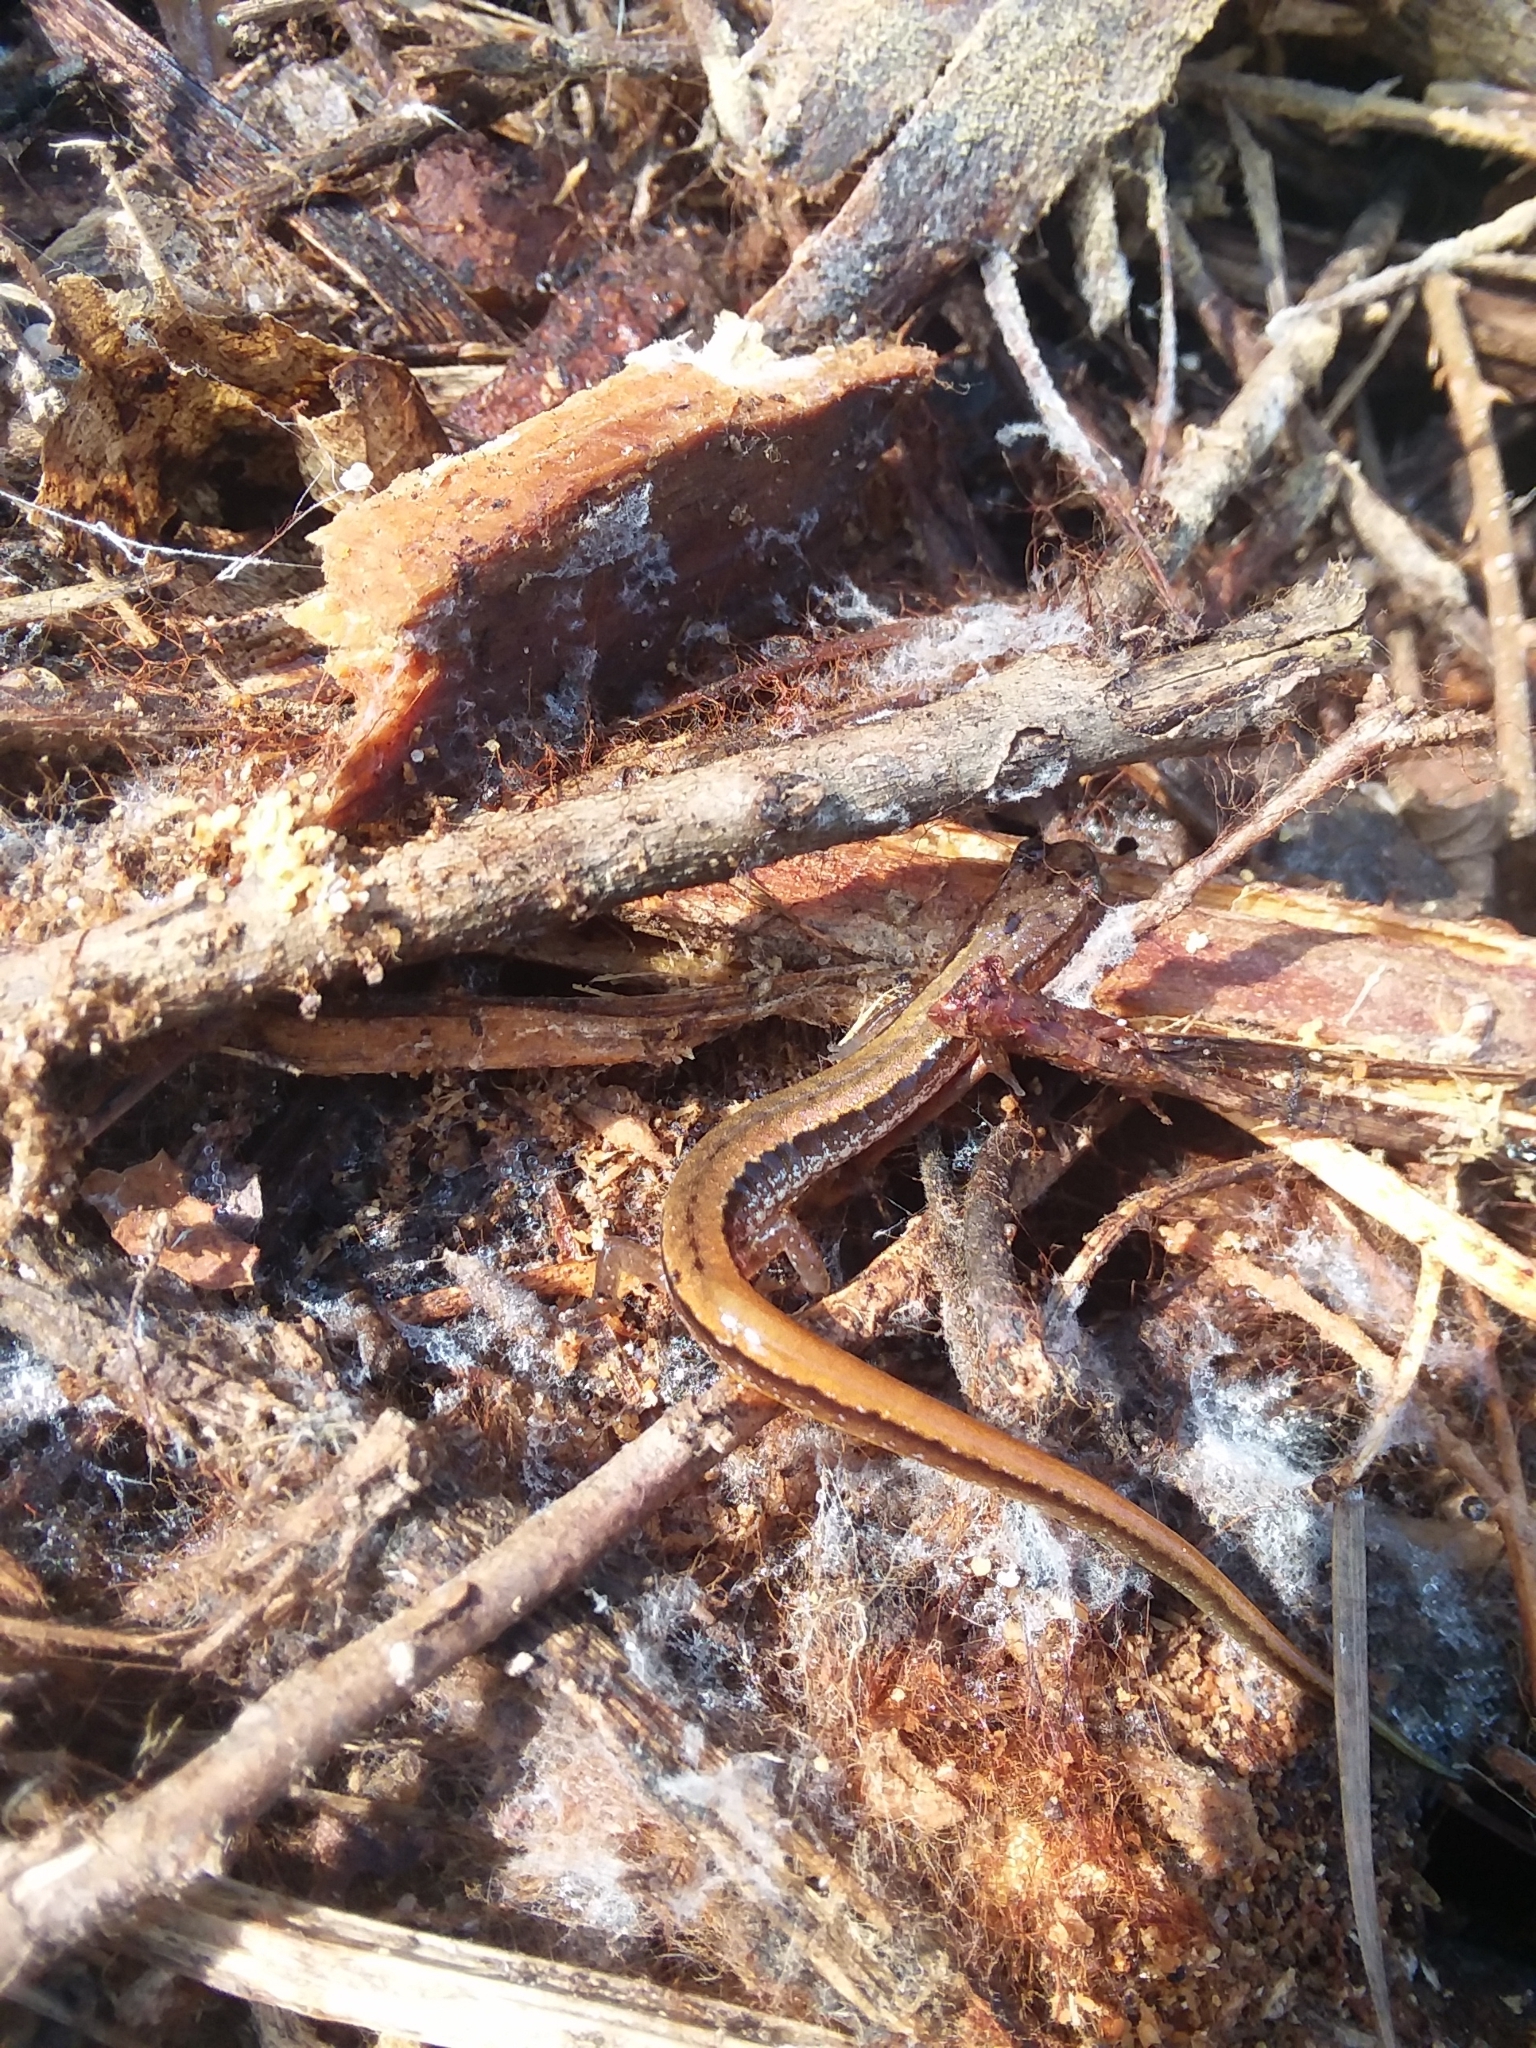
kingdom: Animalia
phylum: Chordata
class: Amphibia
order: Caudata
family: Plethodontidae
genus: Eurycea
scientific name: Eurycea paludicola
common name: Western dwarf salamander
